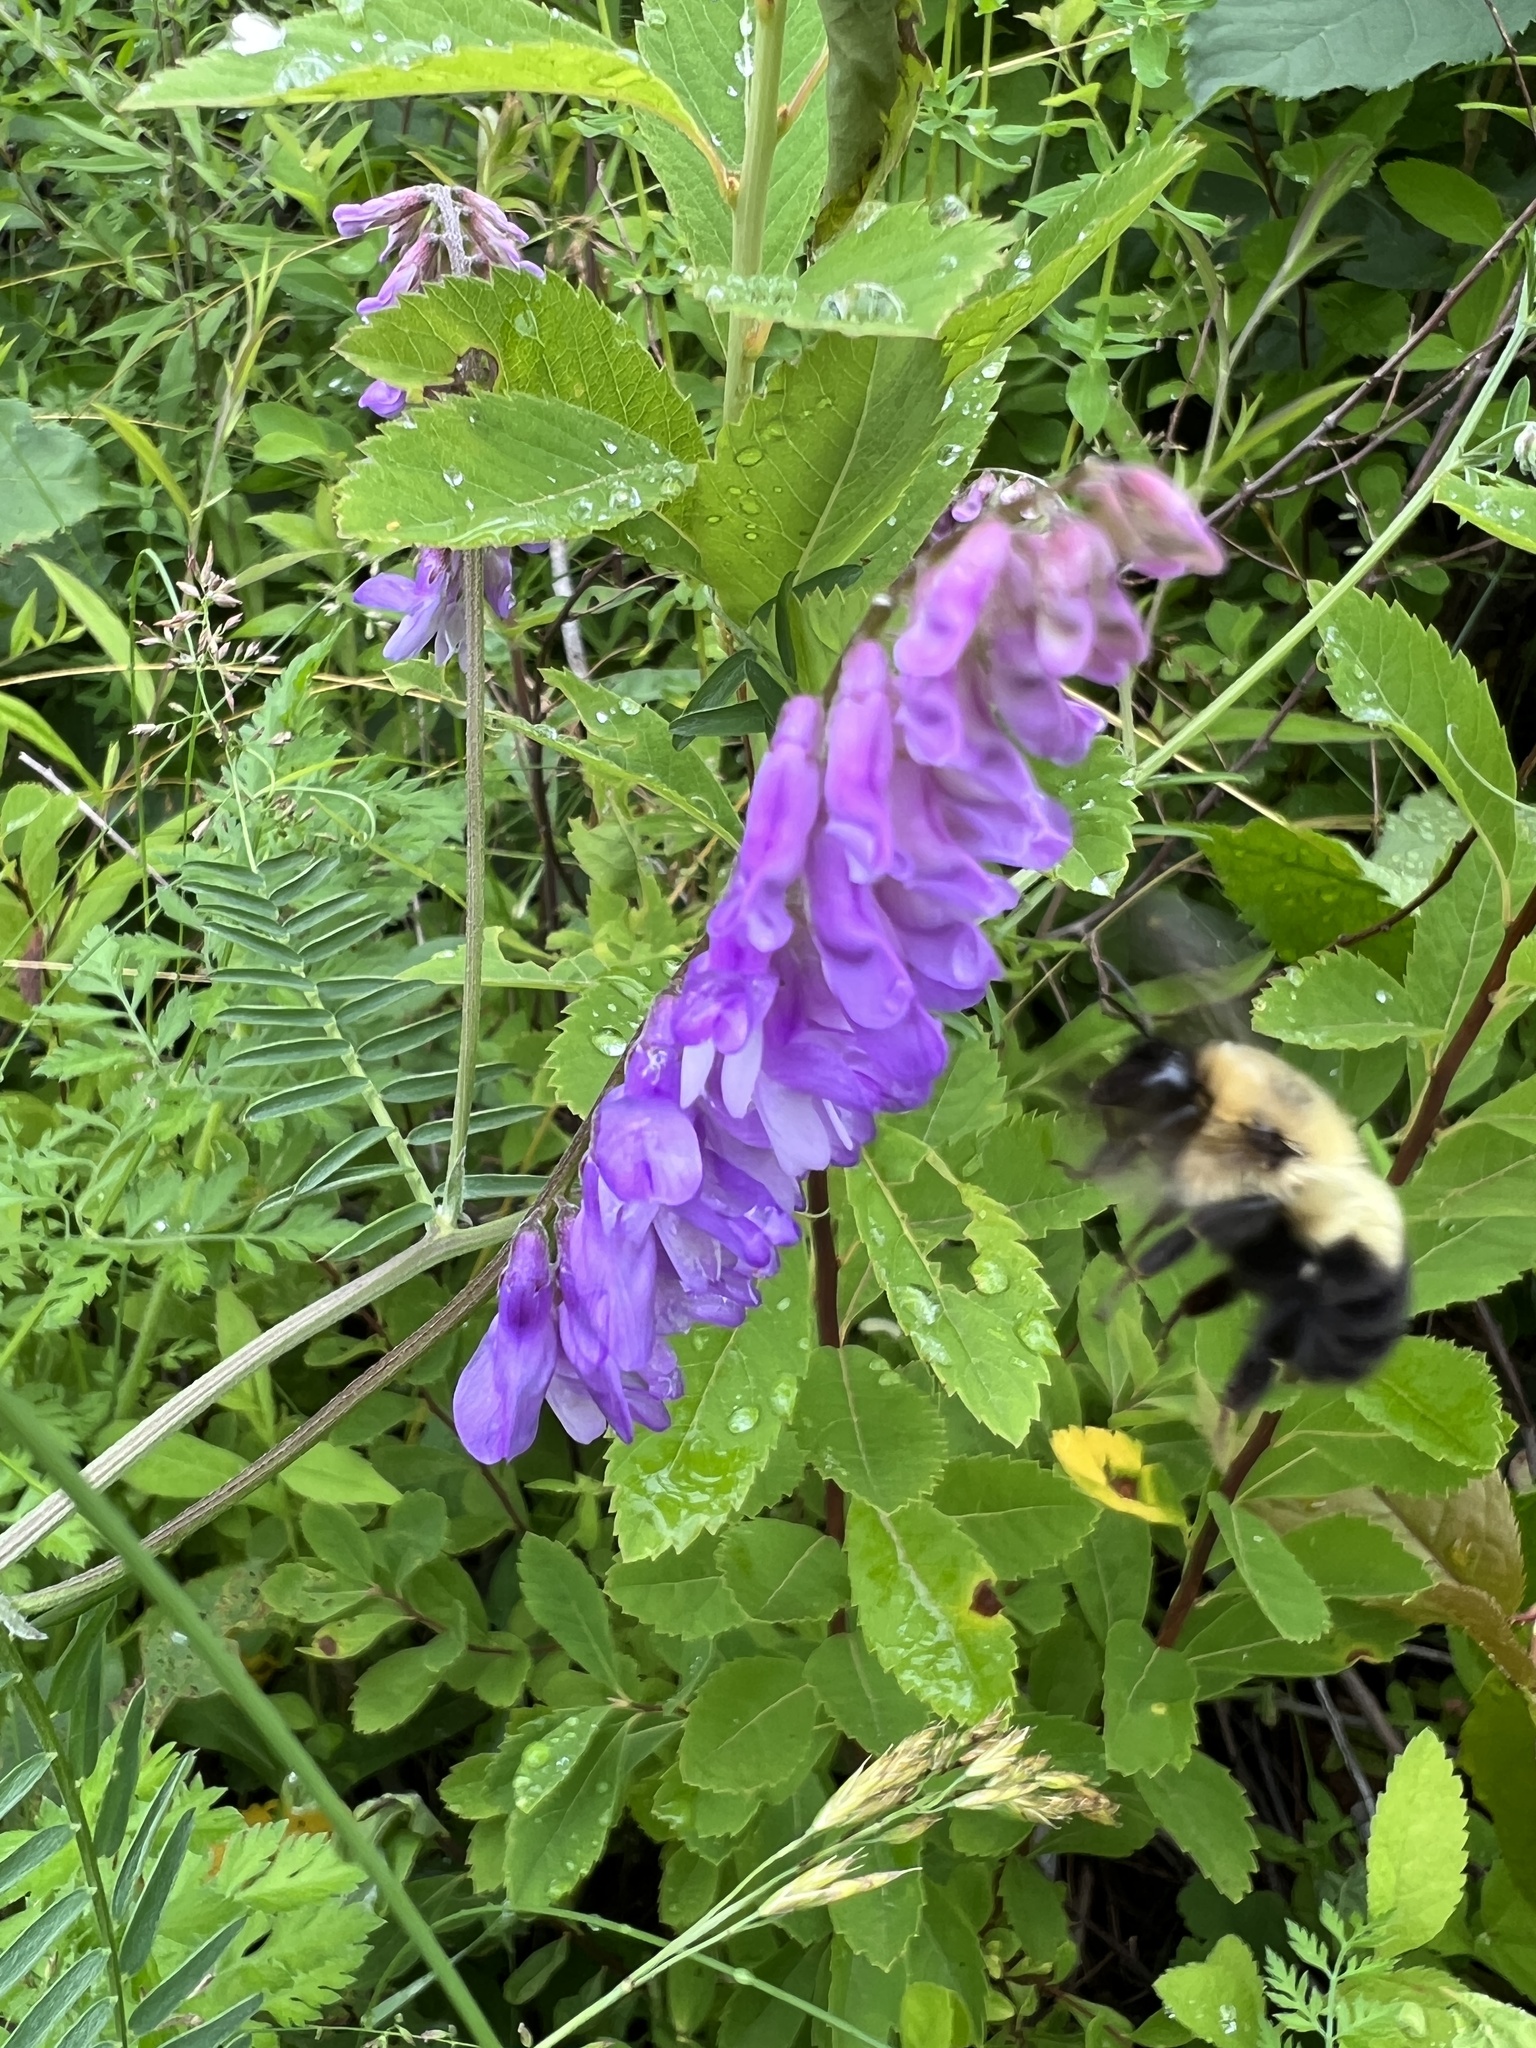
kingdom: Animalia
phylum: Arthropoda
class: Insecta
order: Hymenoptera
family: Apidae
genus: Bombus
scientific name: Bombus bimaculatus
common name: Two-spotted bumble bee
